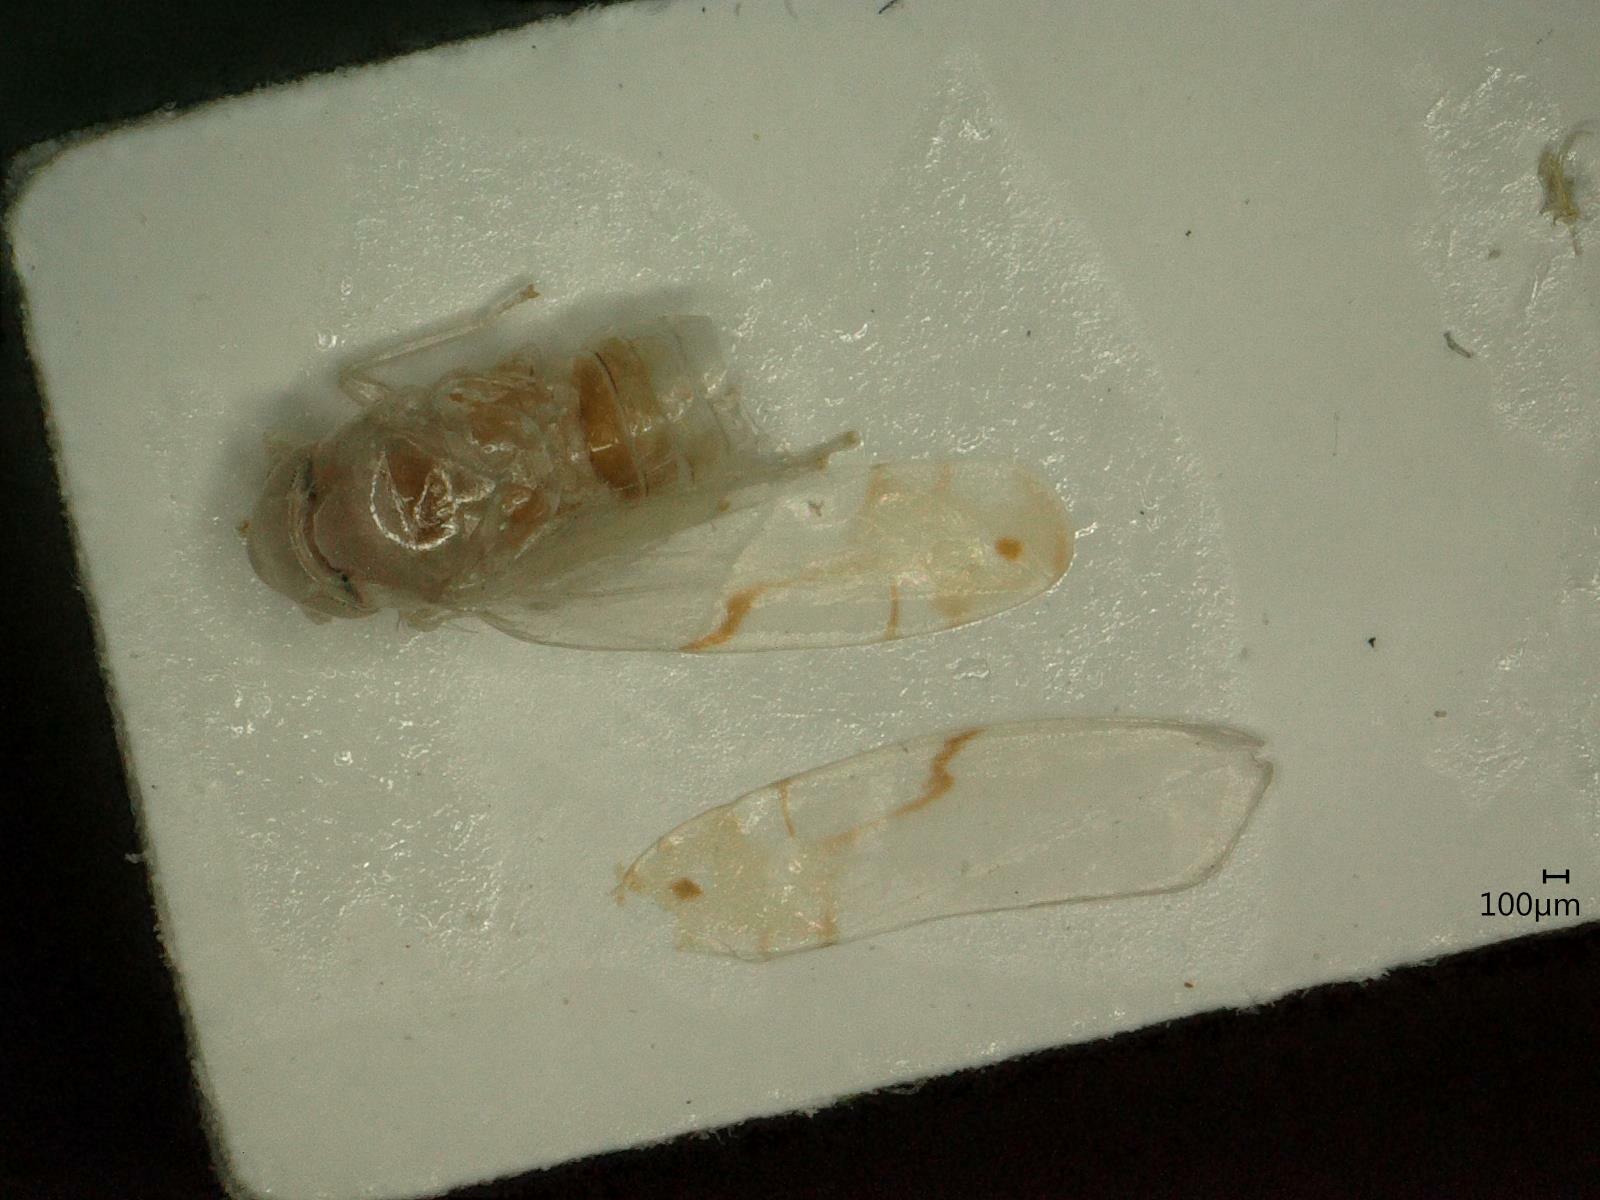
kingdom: Animalia
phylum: Arthropoda
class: Insecta
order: Hemiptera
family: Cicadellidae
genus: Eurhadina
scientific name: Eurhadina pulchella
